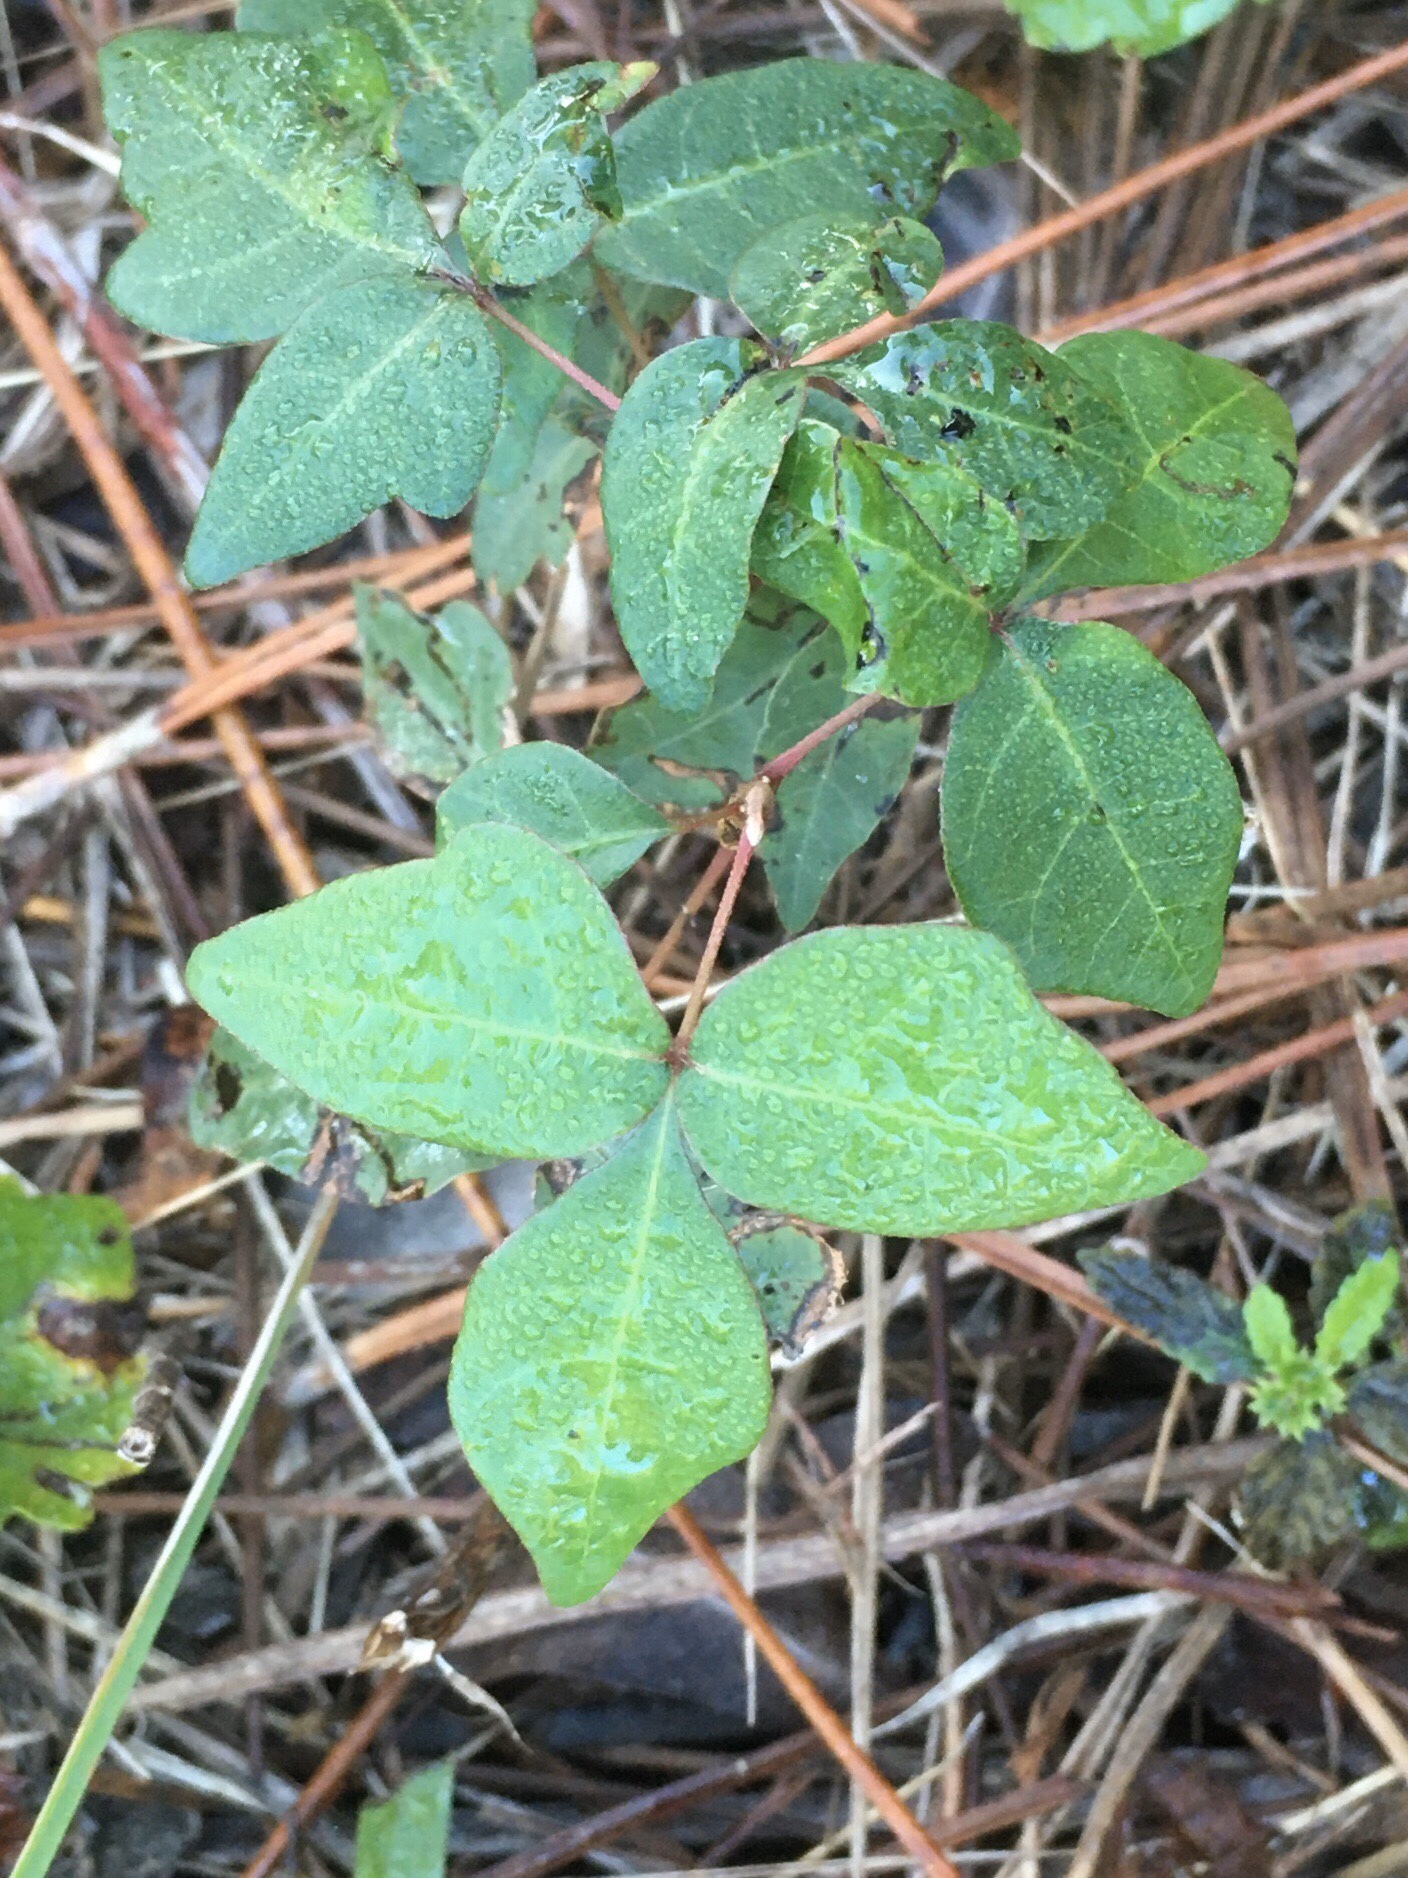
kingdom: Plantae
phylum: Tracheophyta
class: Magnoliopsida
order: Sapindales
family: Anacardiaceae
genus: Toxicodendron
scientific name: Toxicodendron radicans
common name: Poison ivy
